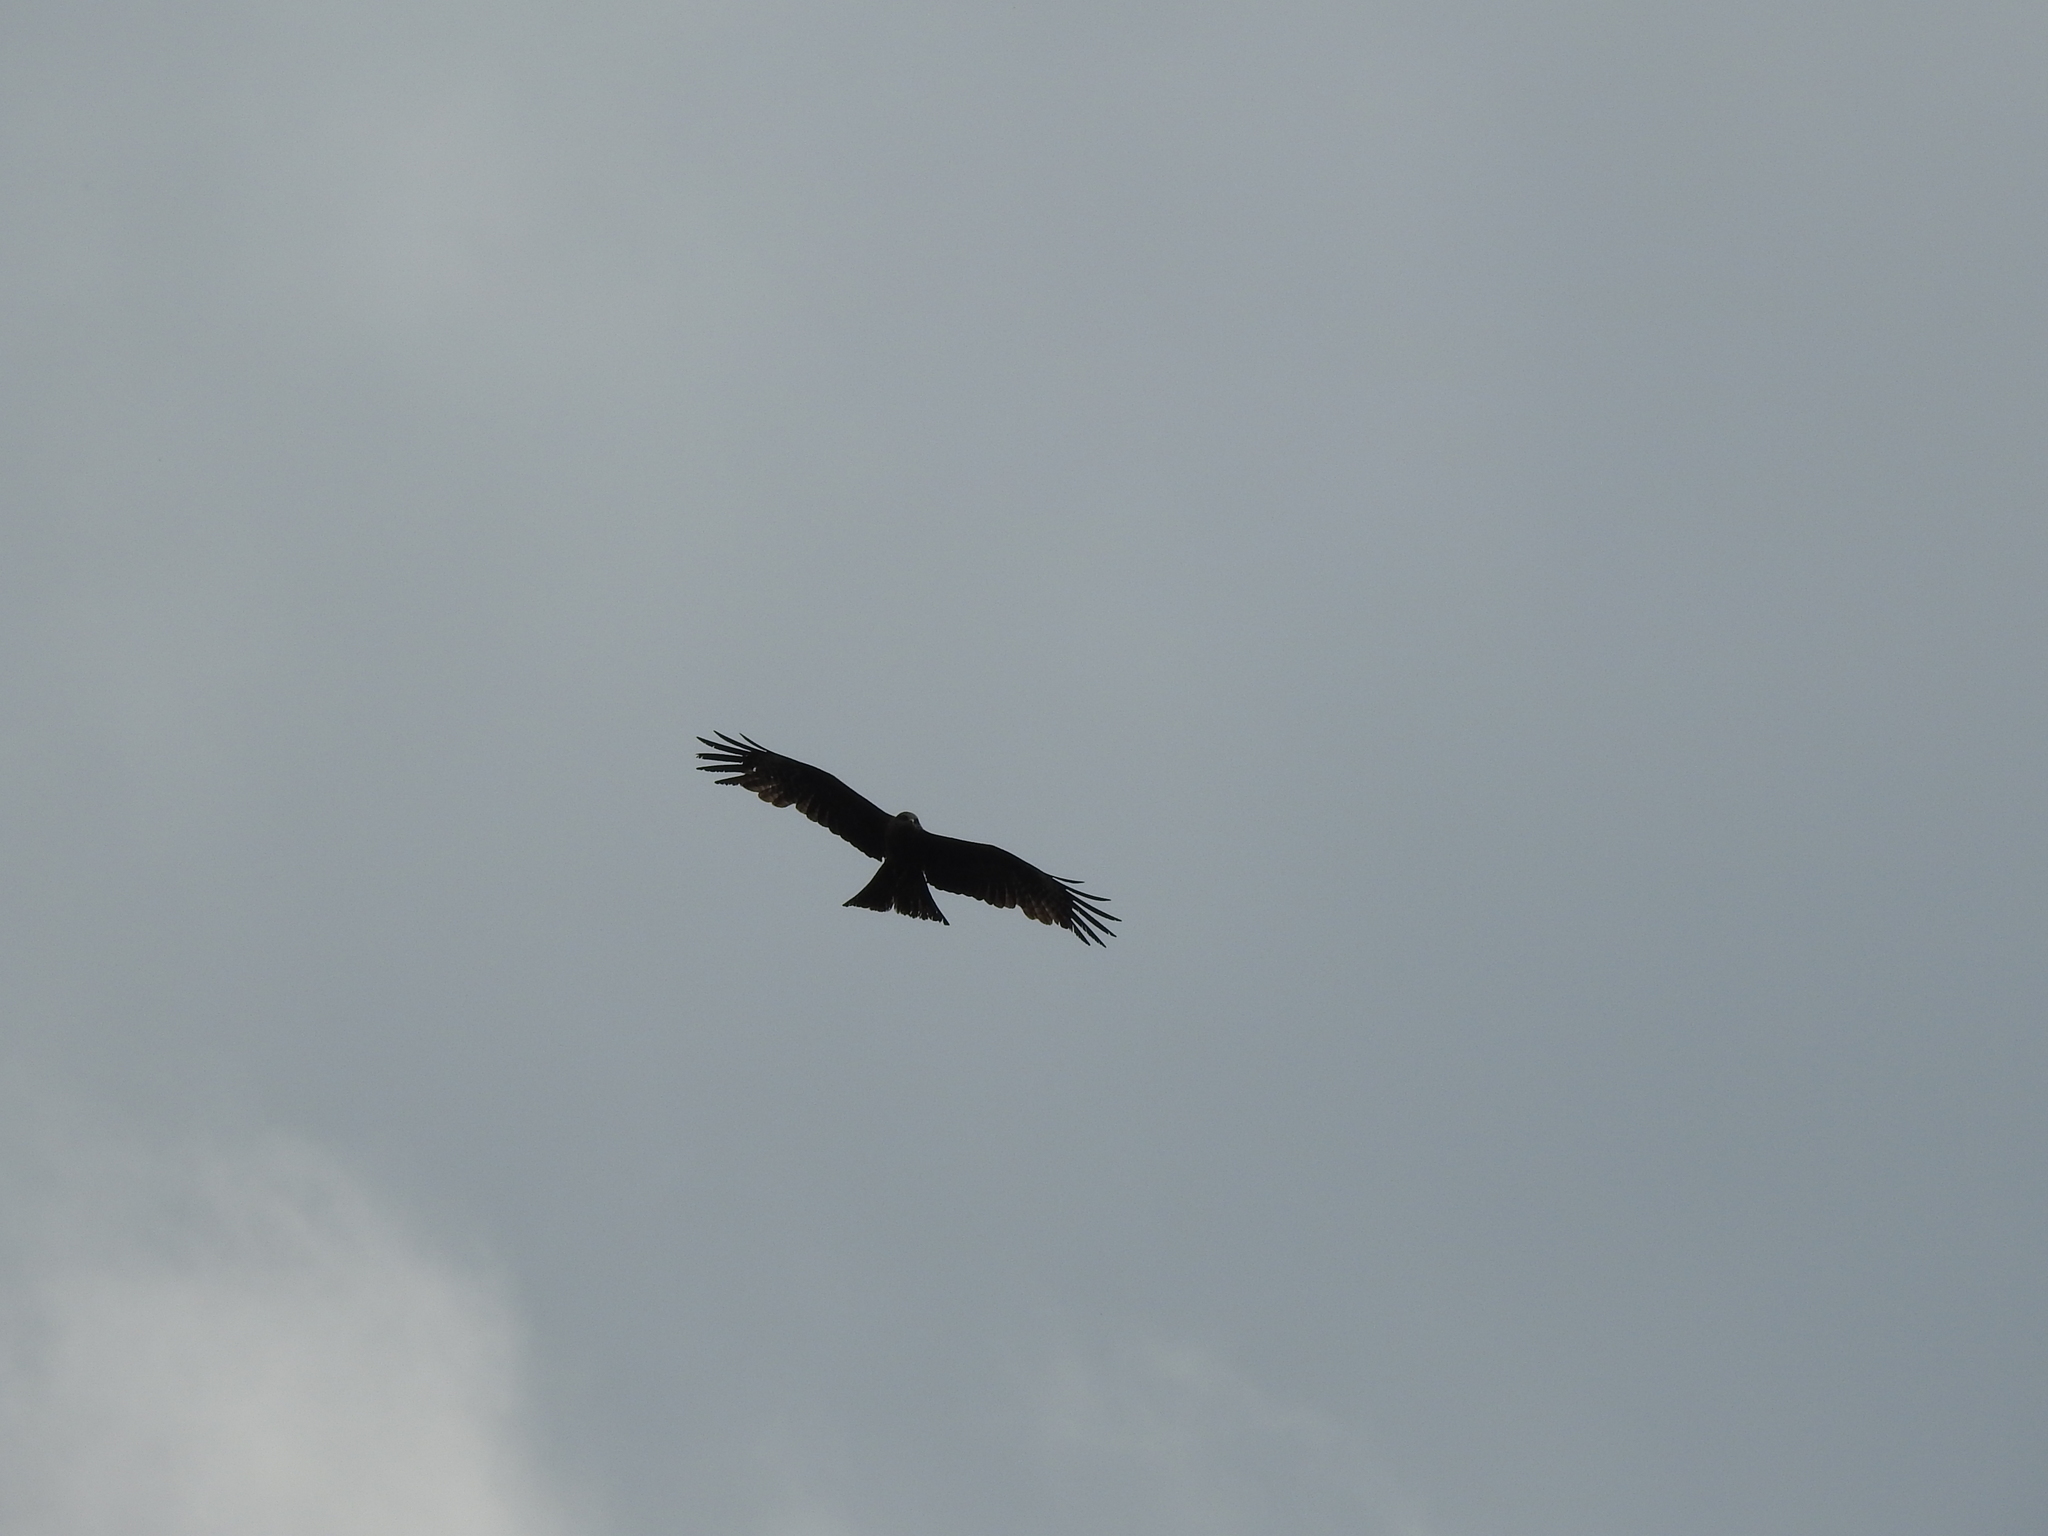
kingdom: Animalia
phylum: Chordata
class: Aves
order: Accipitriformes
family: Accipitridae
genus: Milvus
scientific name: Milvus migrans
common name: Black kite
